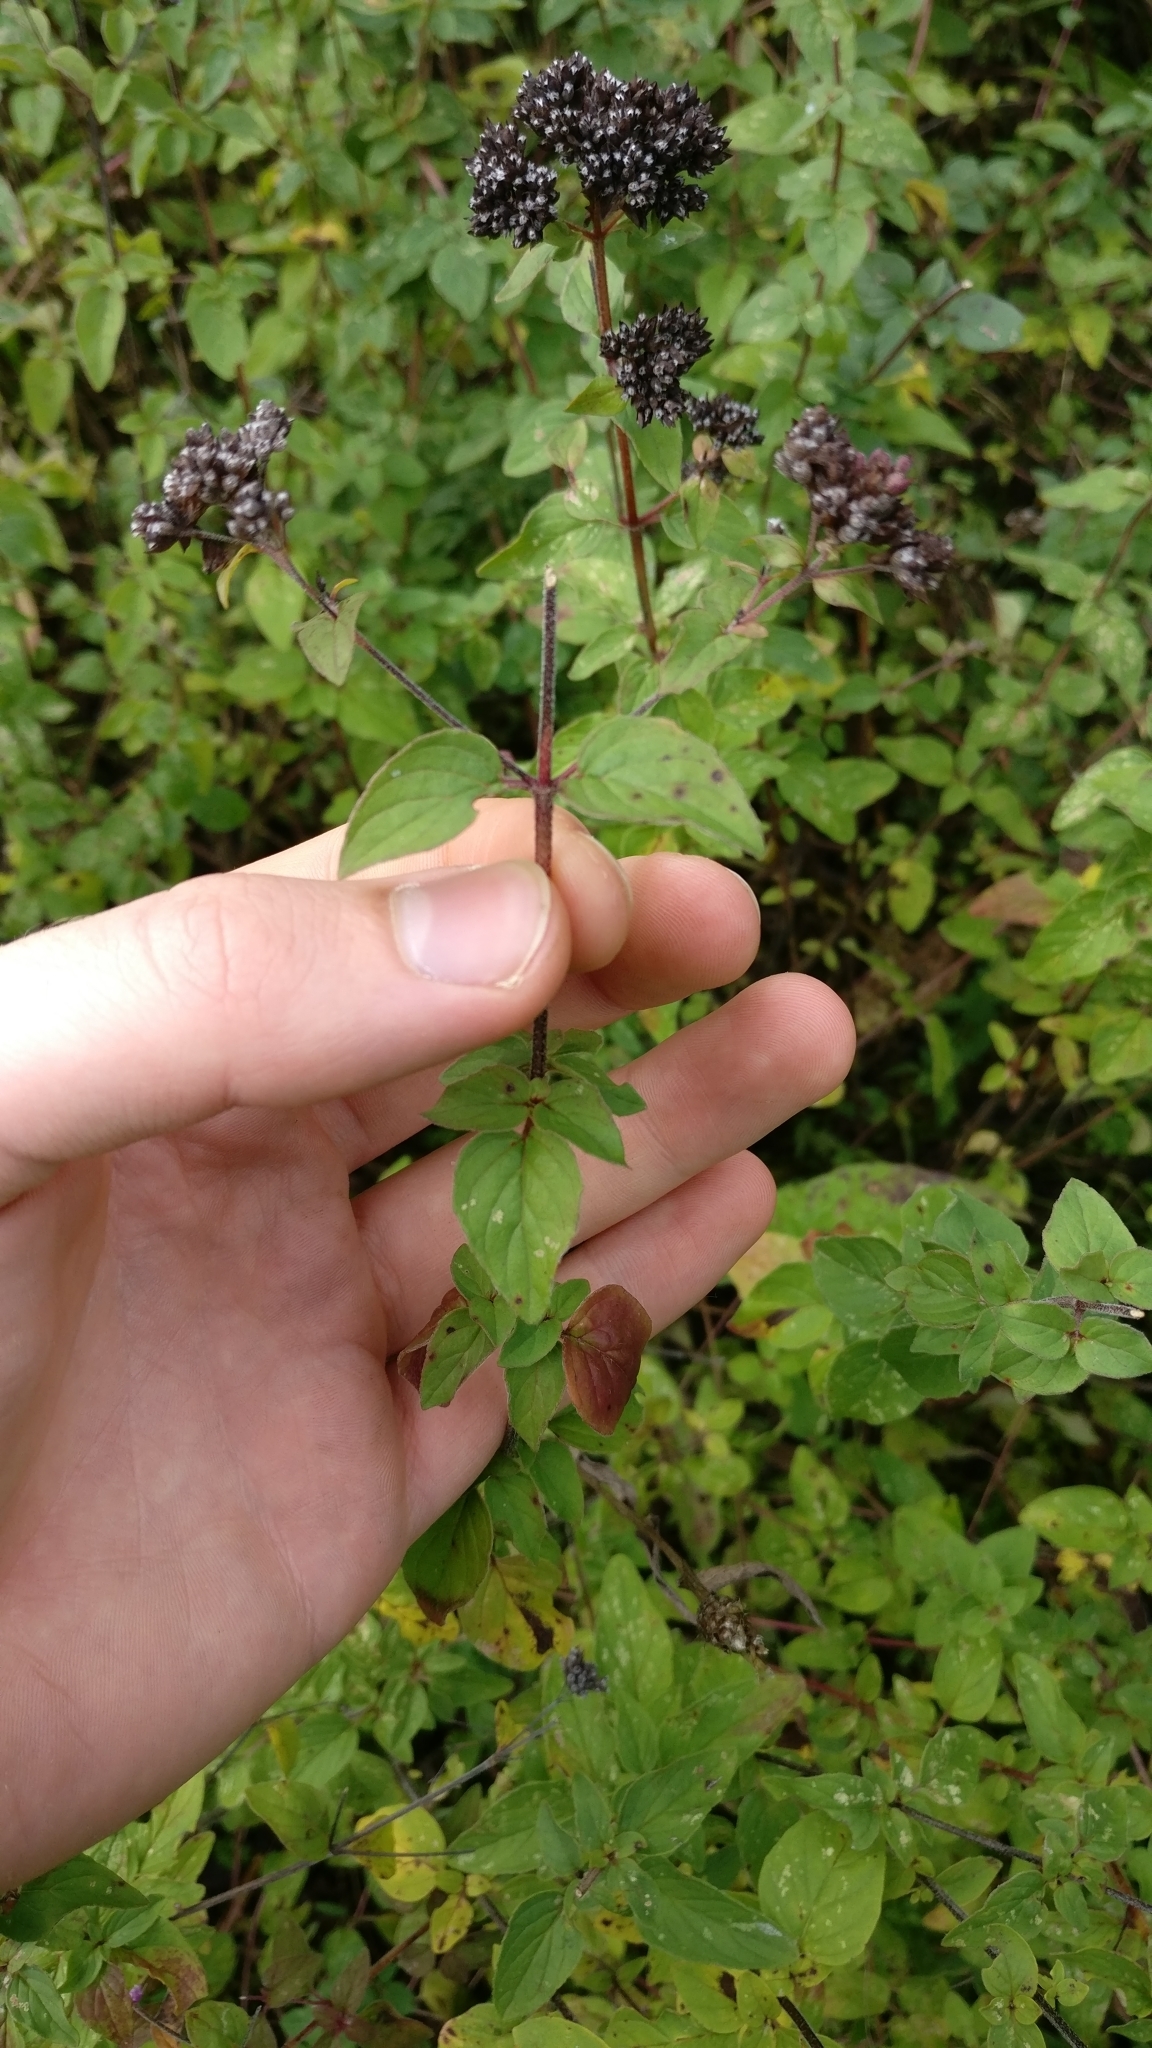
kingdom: Plantae
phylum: Tracheophyta
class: Magnoliopsida
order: Lamiales
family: Lamiaceae
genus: Origanum
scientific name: Origanum vulgare
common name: Wild marjoram
